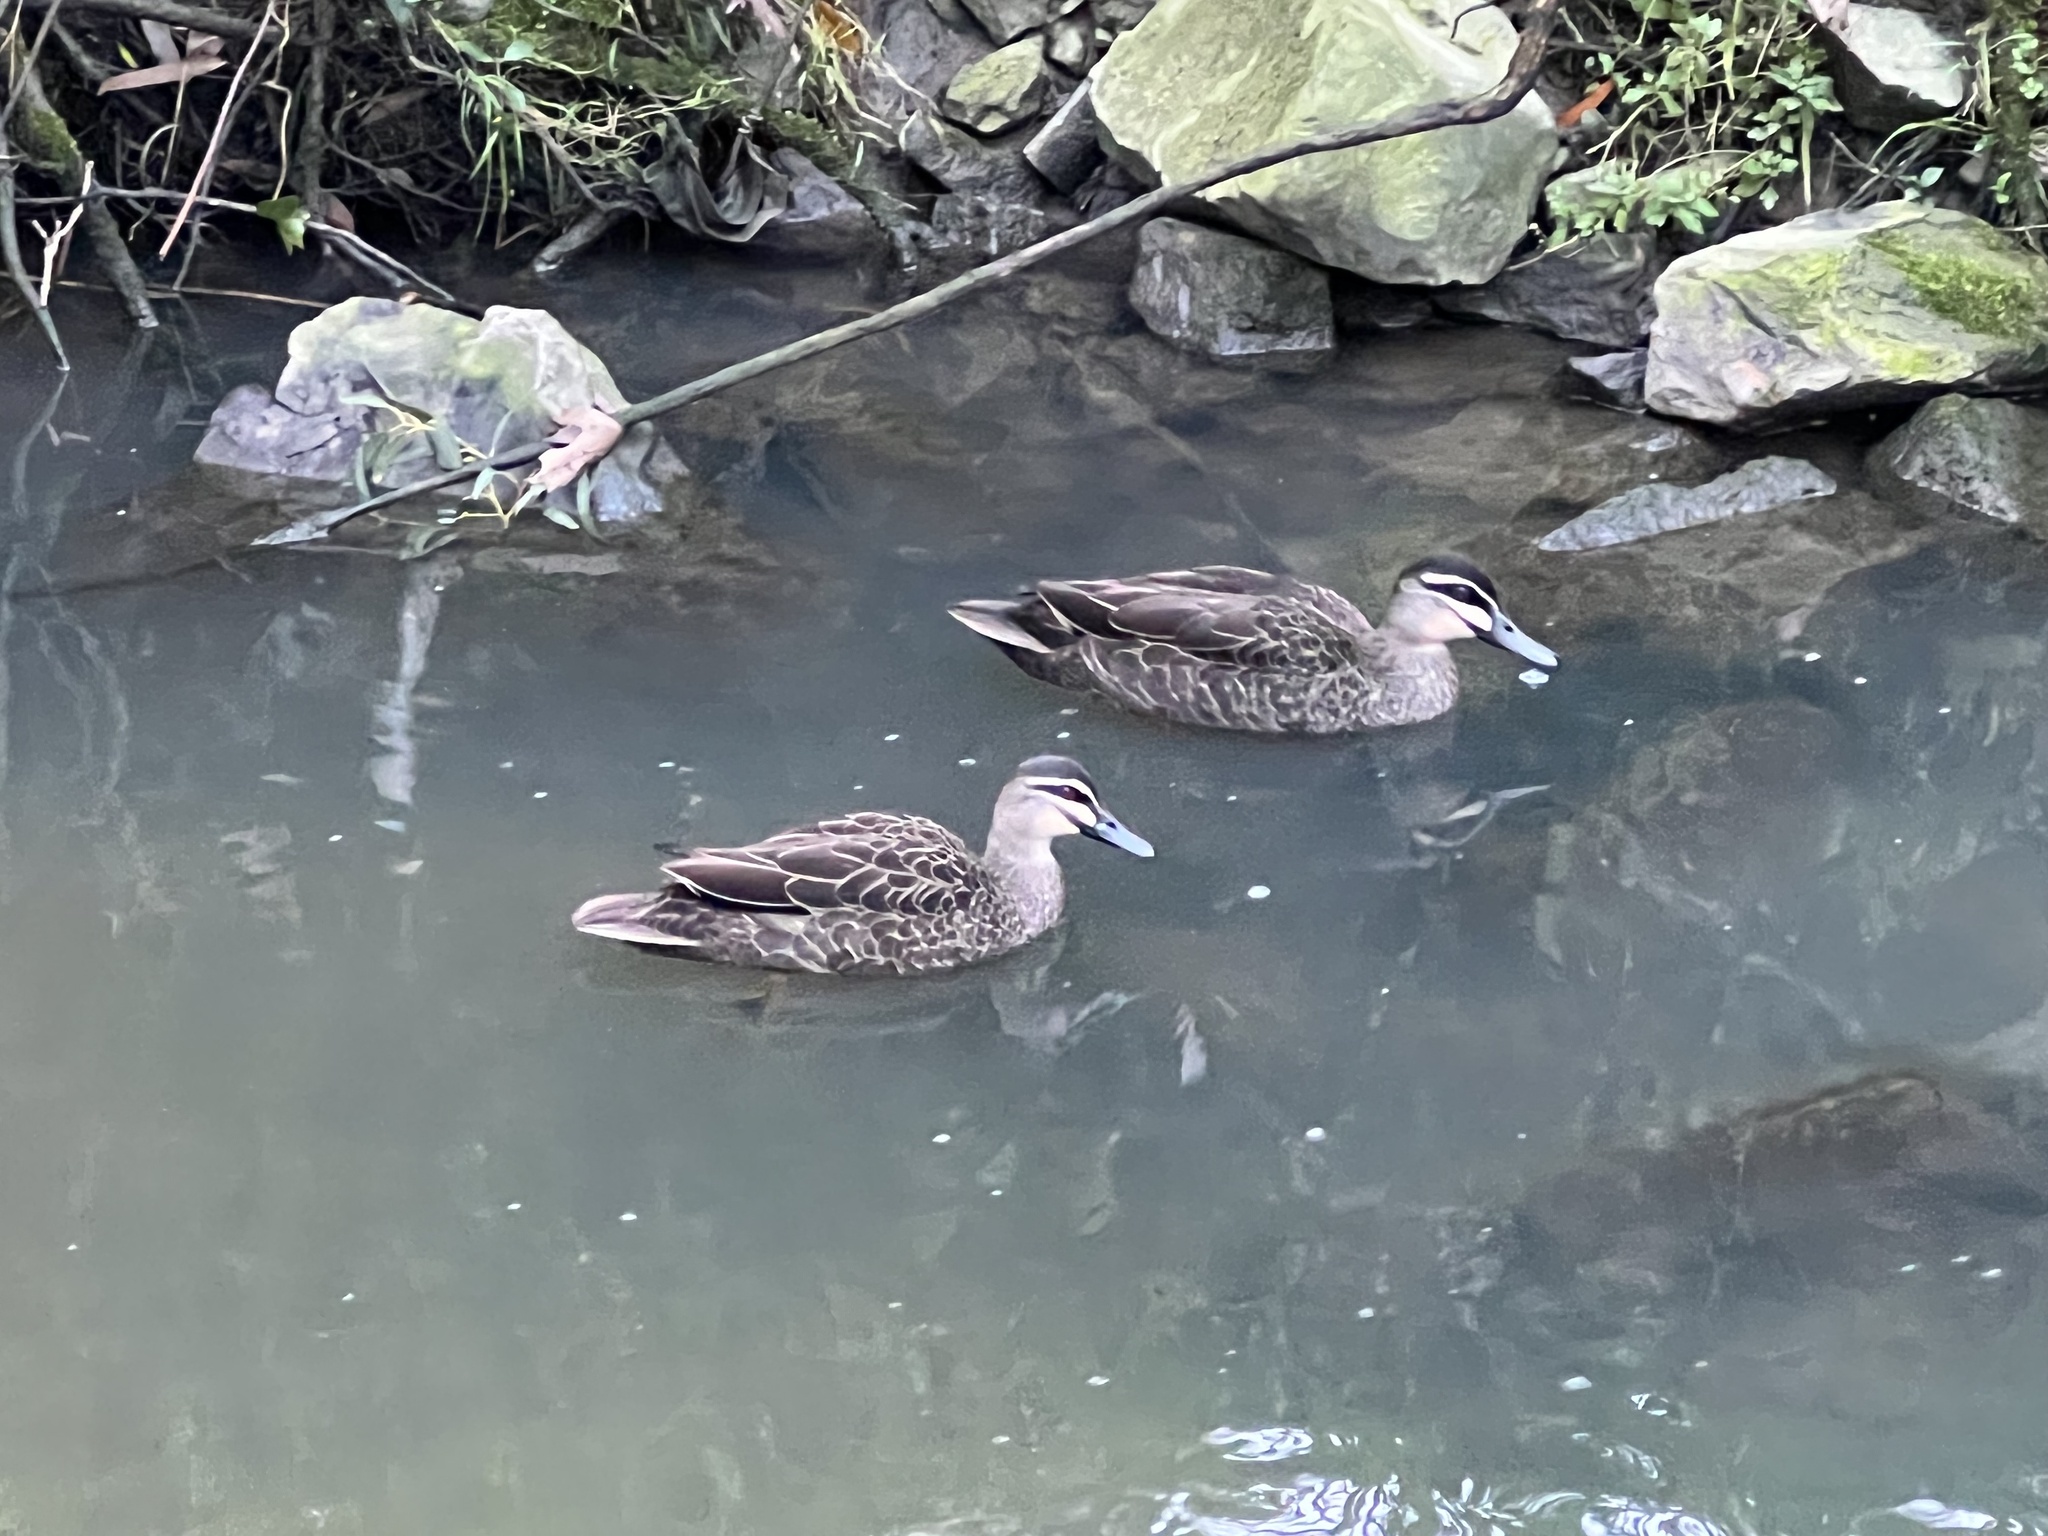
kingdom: Animalia
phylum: Chordata
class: Aves
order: Anseriformes
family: Anatidae
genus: Anas
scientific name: Anas superciliosa
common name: Pacific black duck
